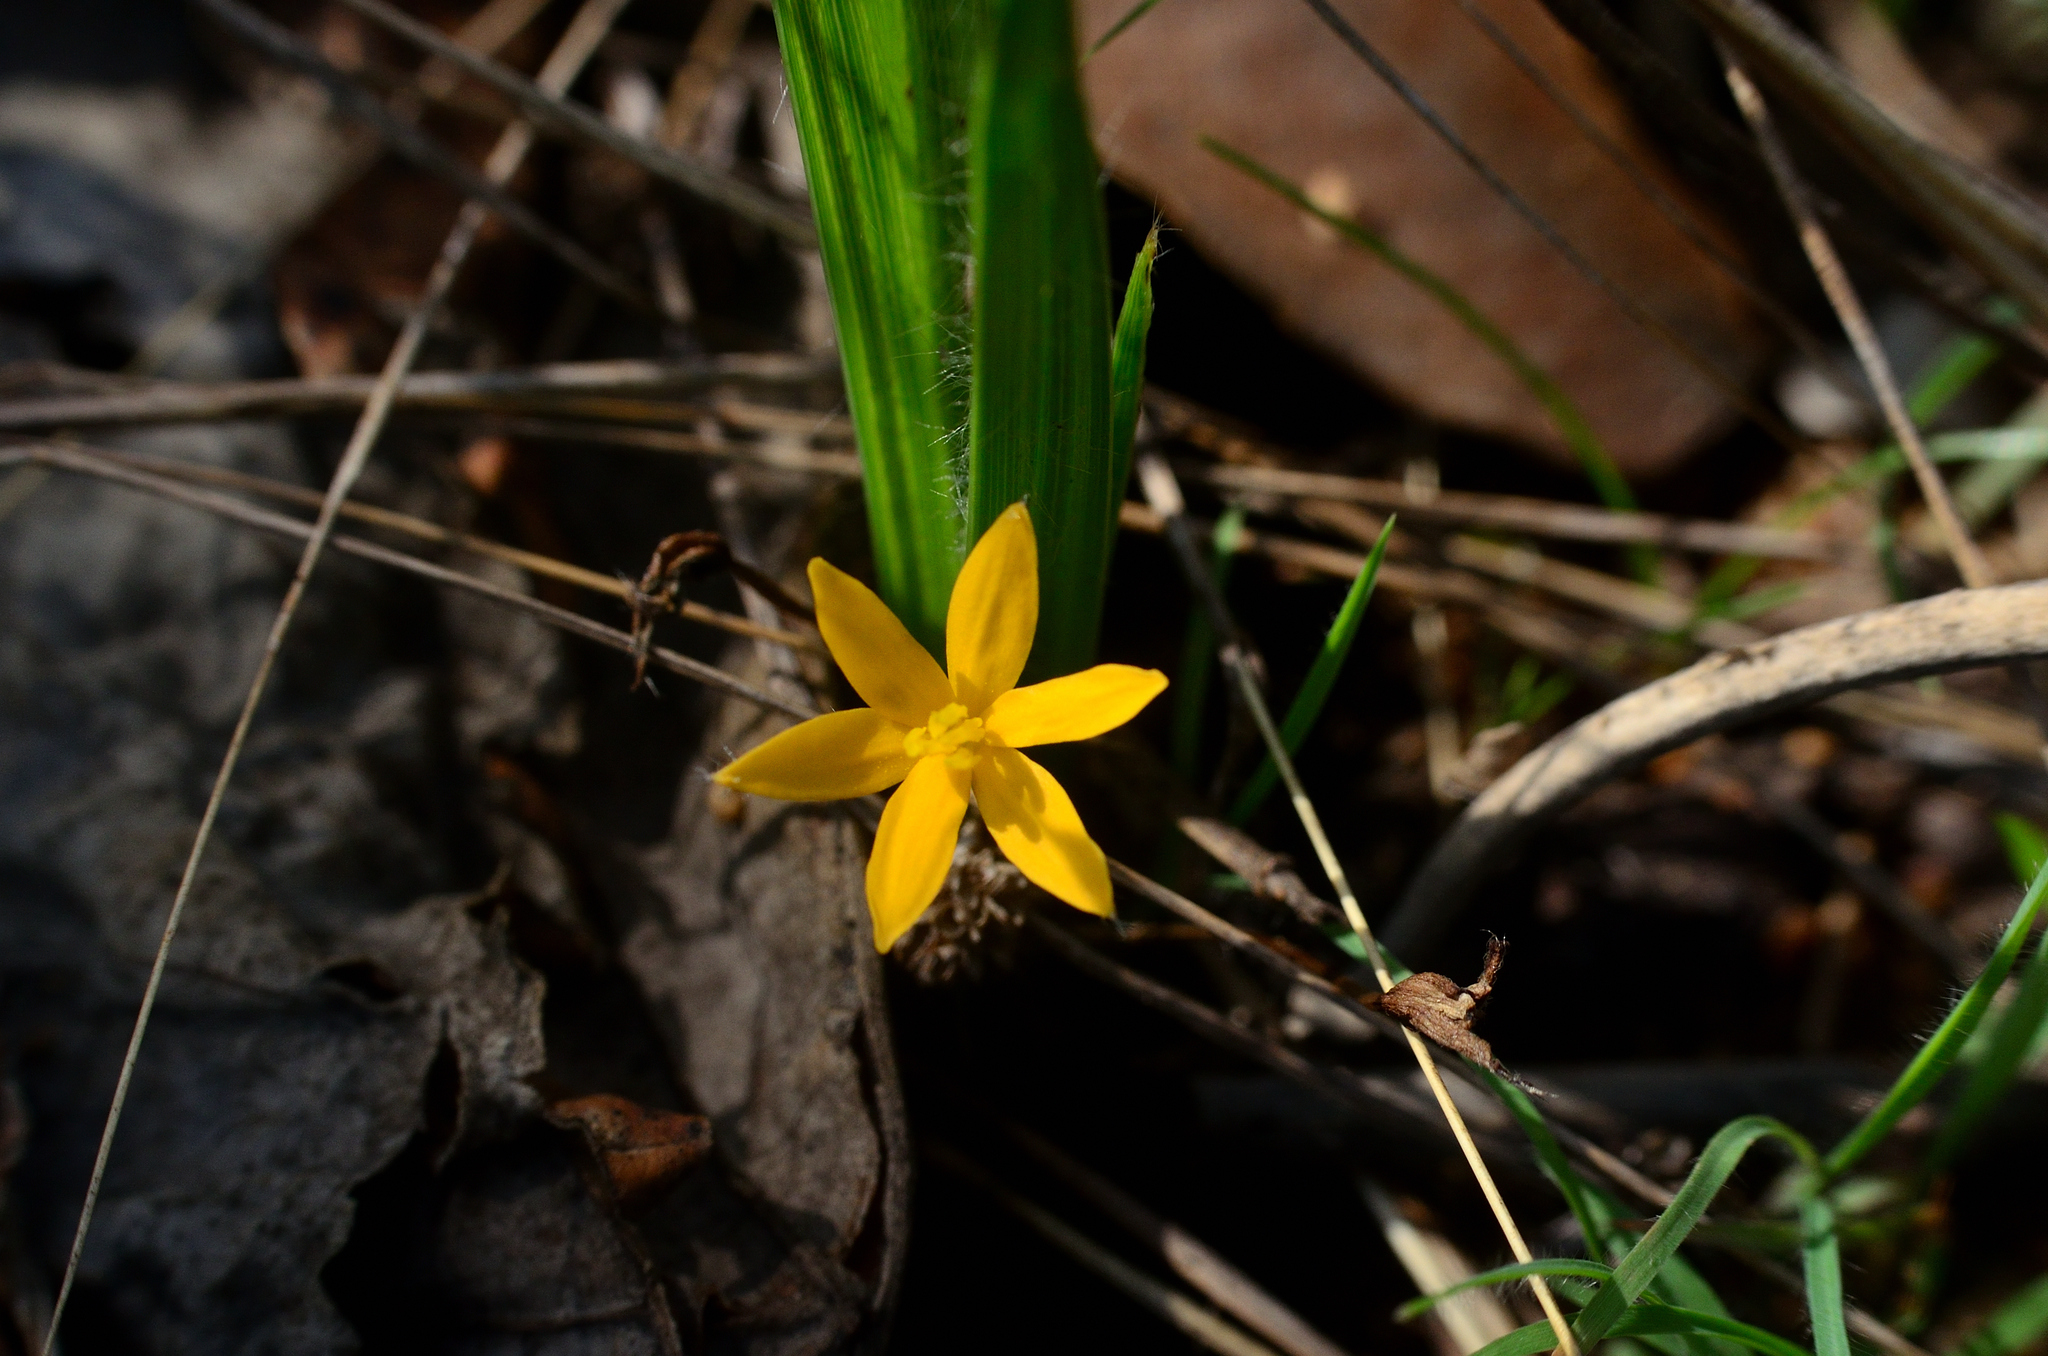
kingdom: Plantae
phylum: Tracheophyta
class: Liliopsida
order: Asparagales
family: Hypoxidaceae
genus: Curculigo
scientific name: Curculigo orchioides
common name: Golden eye-grass
